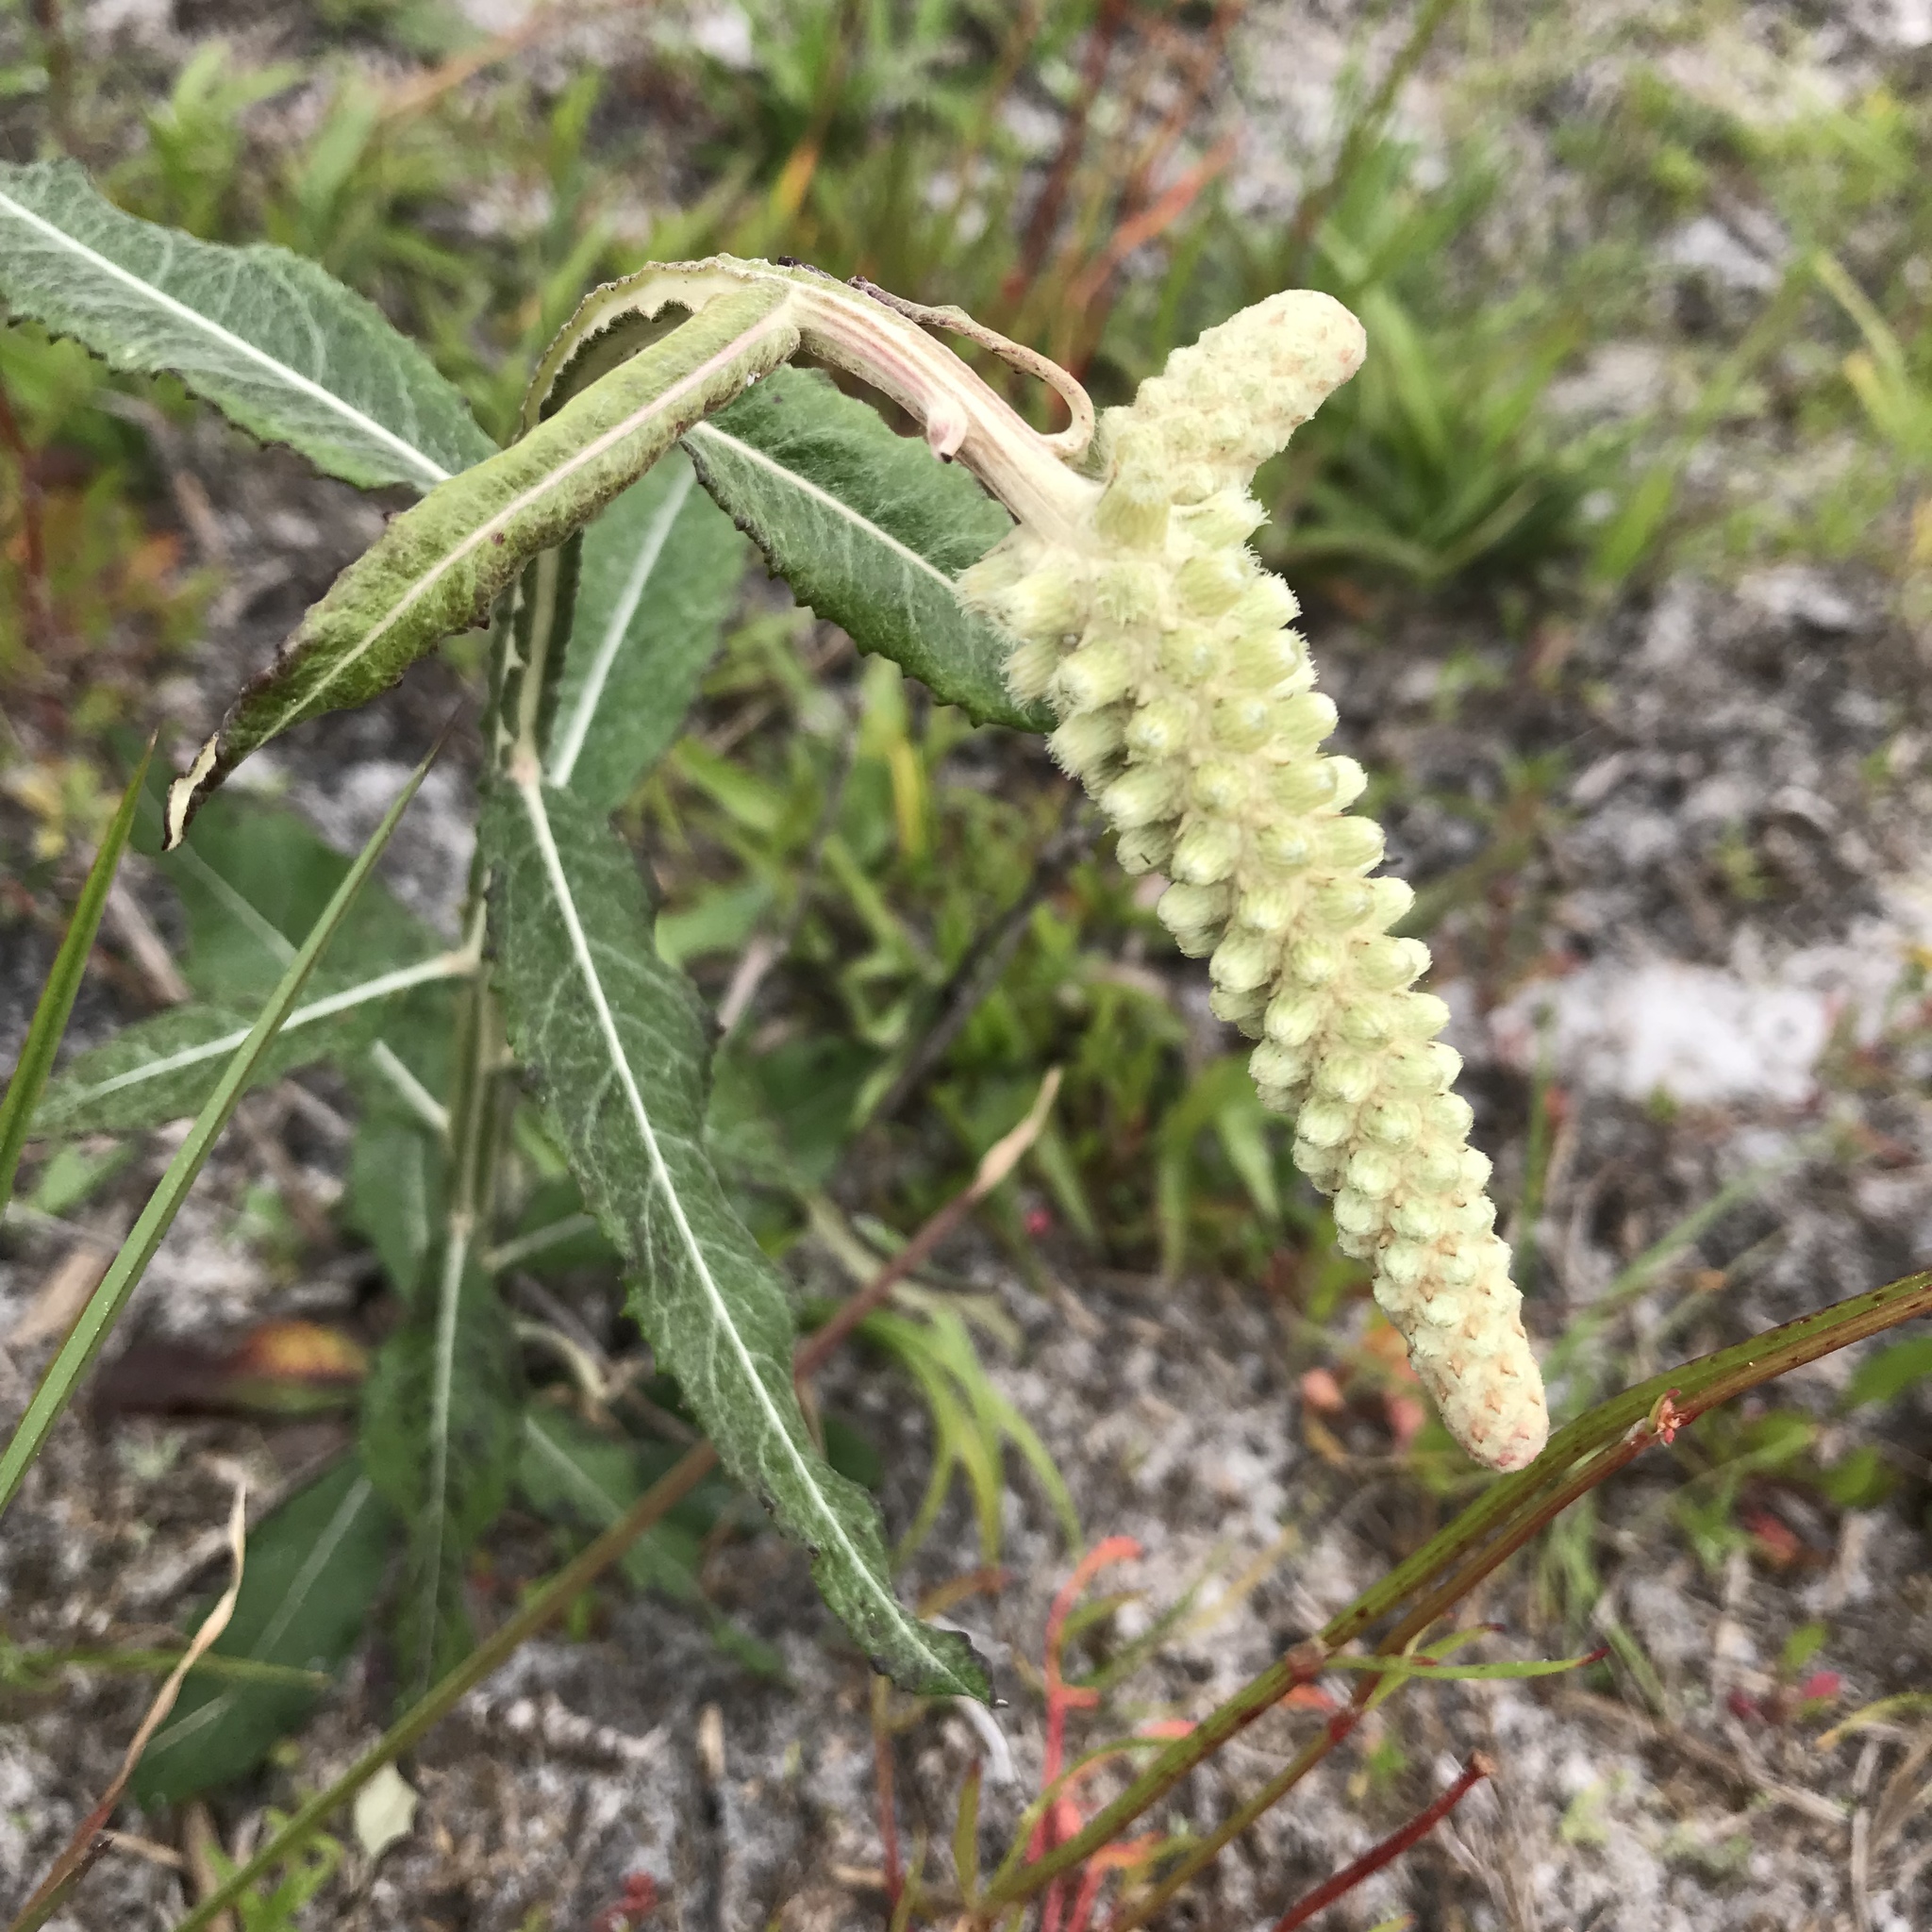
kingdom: Plantae
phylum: Tracheophyta
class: Magnoliopsida
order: Asterales
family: Asteraceae
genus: Pterocaulon
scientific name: Pterocaulon pycnostachyum
